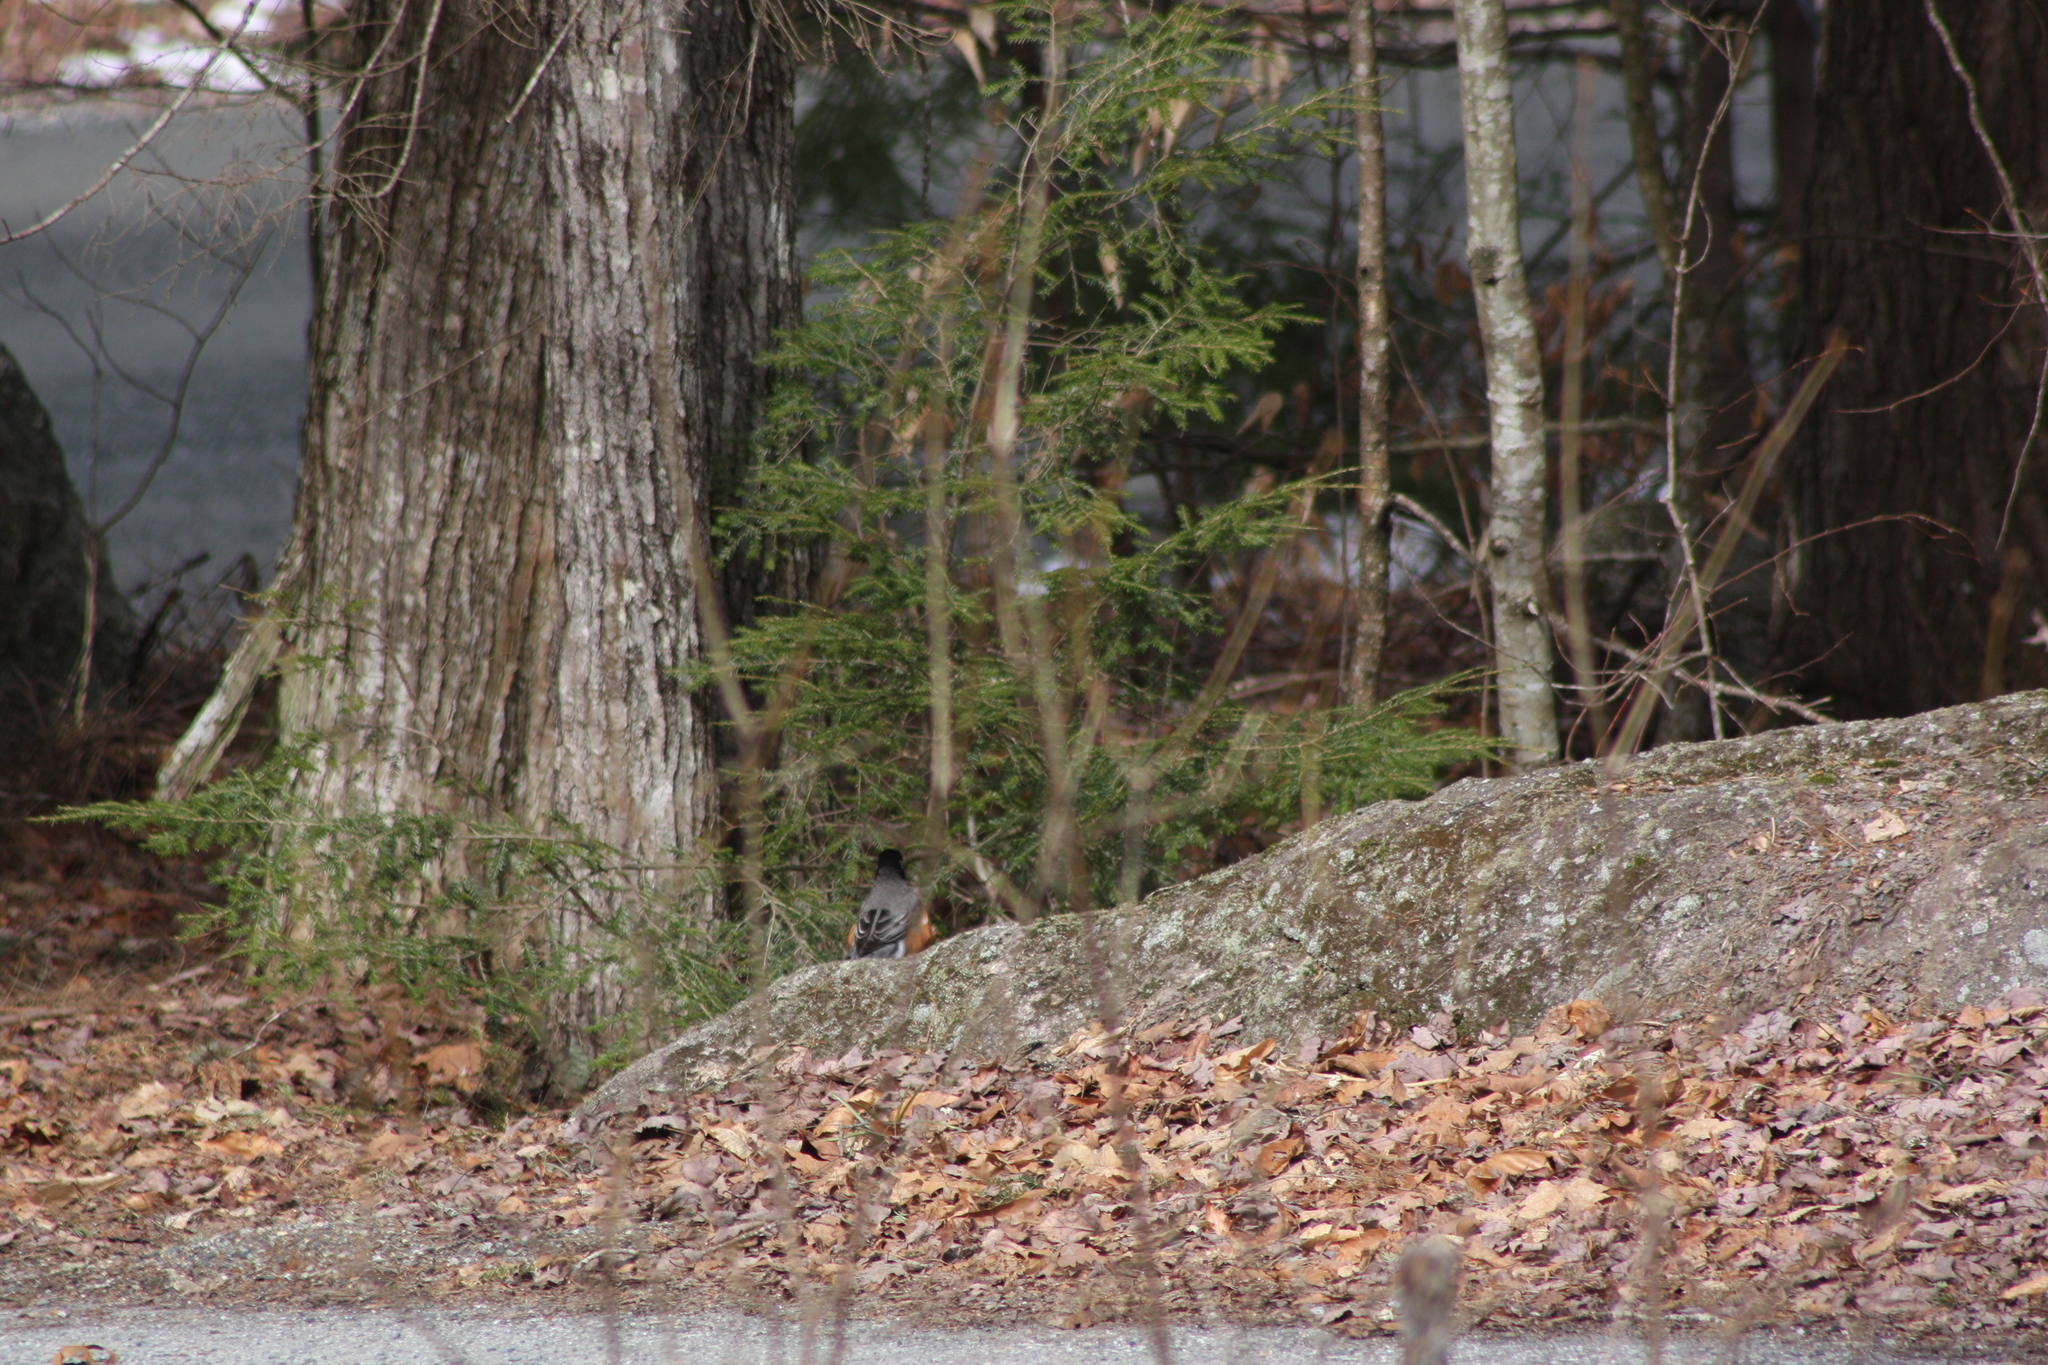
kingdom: Animalia
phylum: Chordata
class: Aves
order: Passeriformes
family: Turdidae
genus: Turdus
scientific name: Turdus migratorius
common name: American robin
